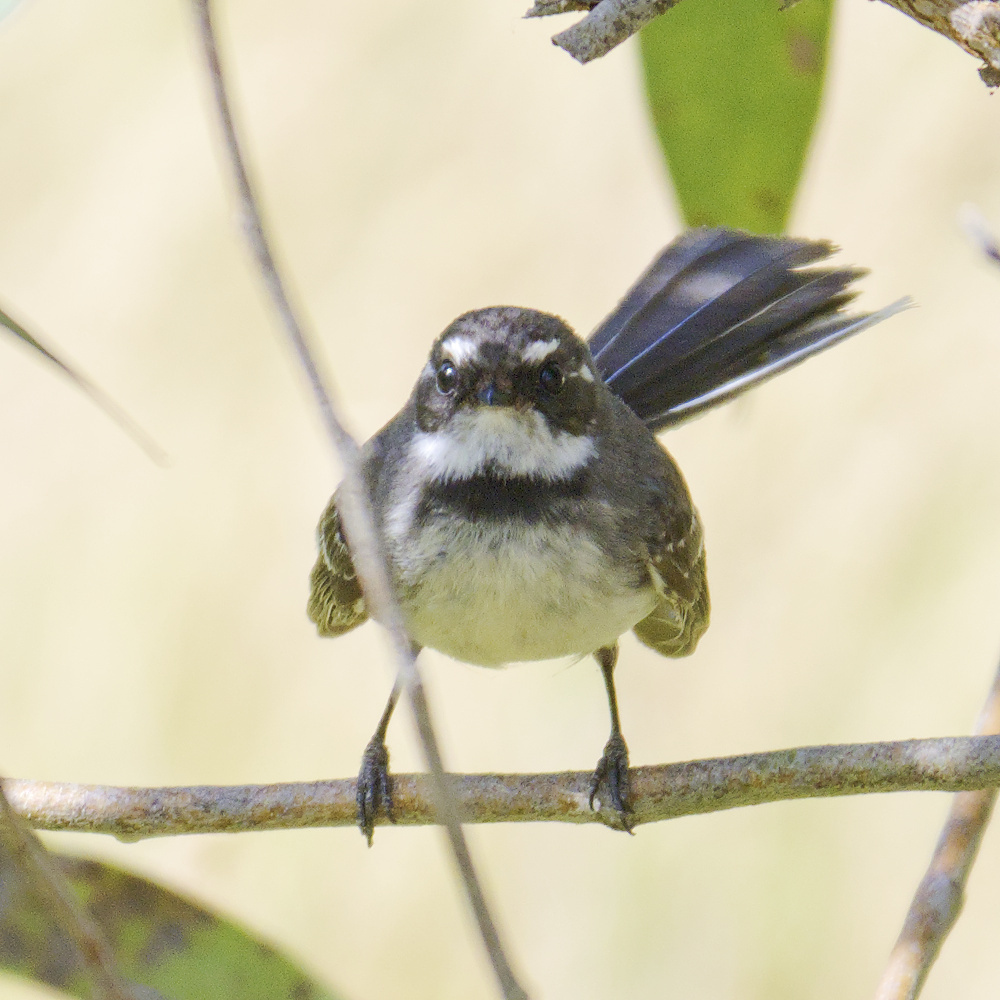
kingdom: Animalia
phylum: Chordata
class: Aves
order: Passeriformes
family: Rhipiduridae
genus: Rhipidura
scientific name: Rhipidura albiscapa
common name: Grey fantail
